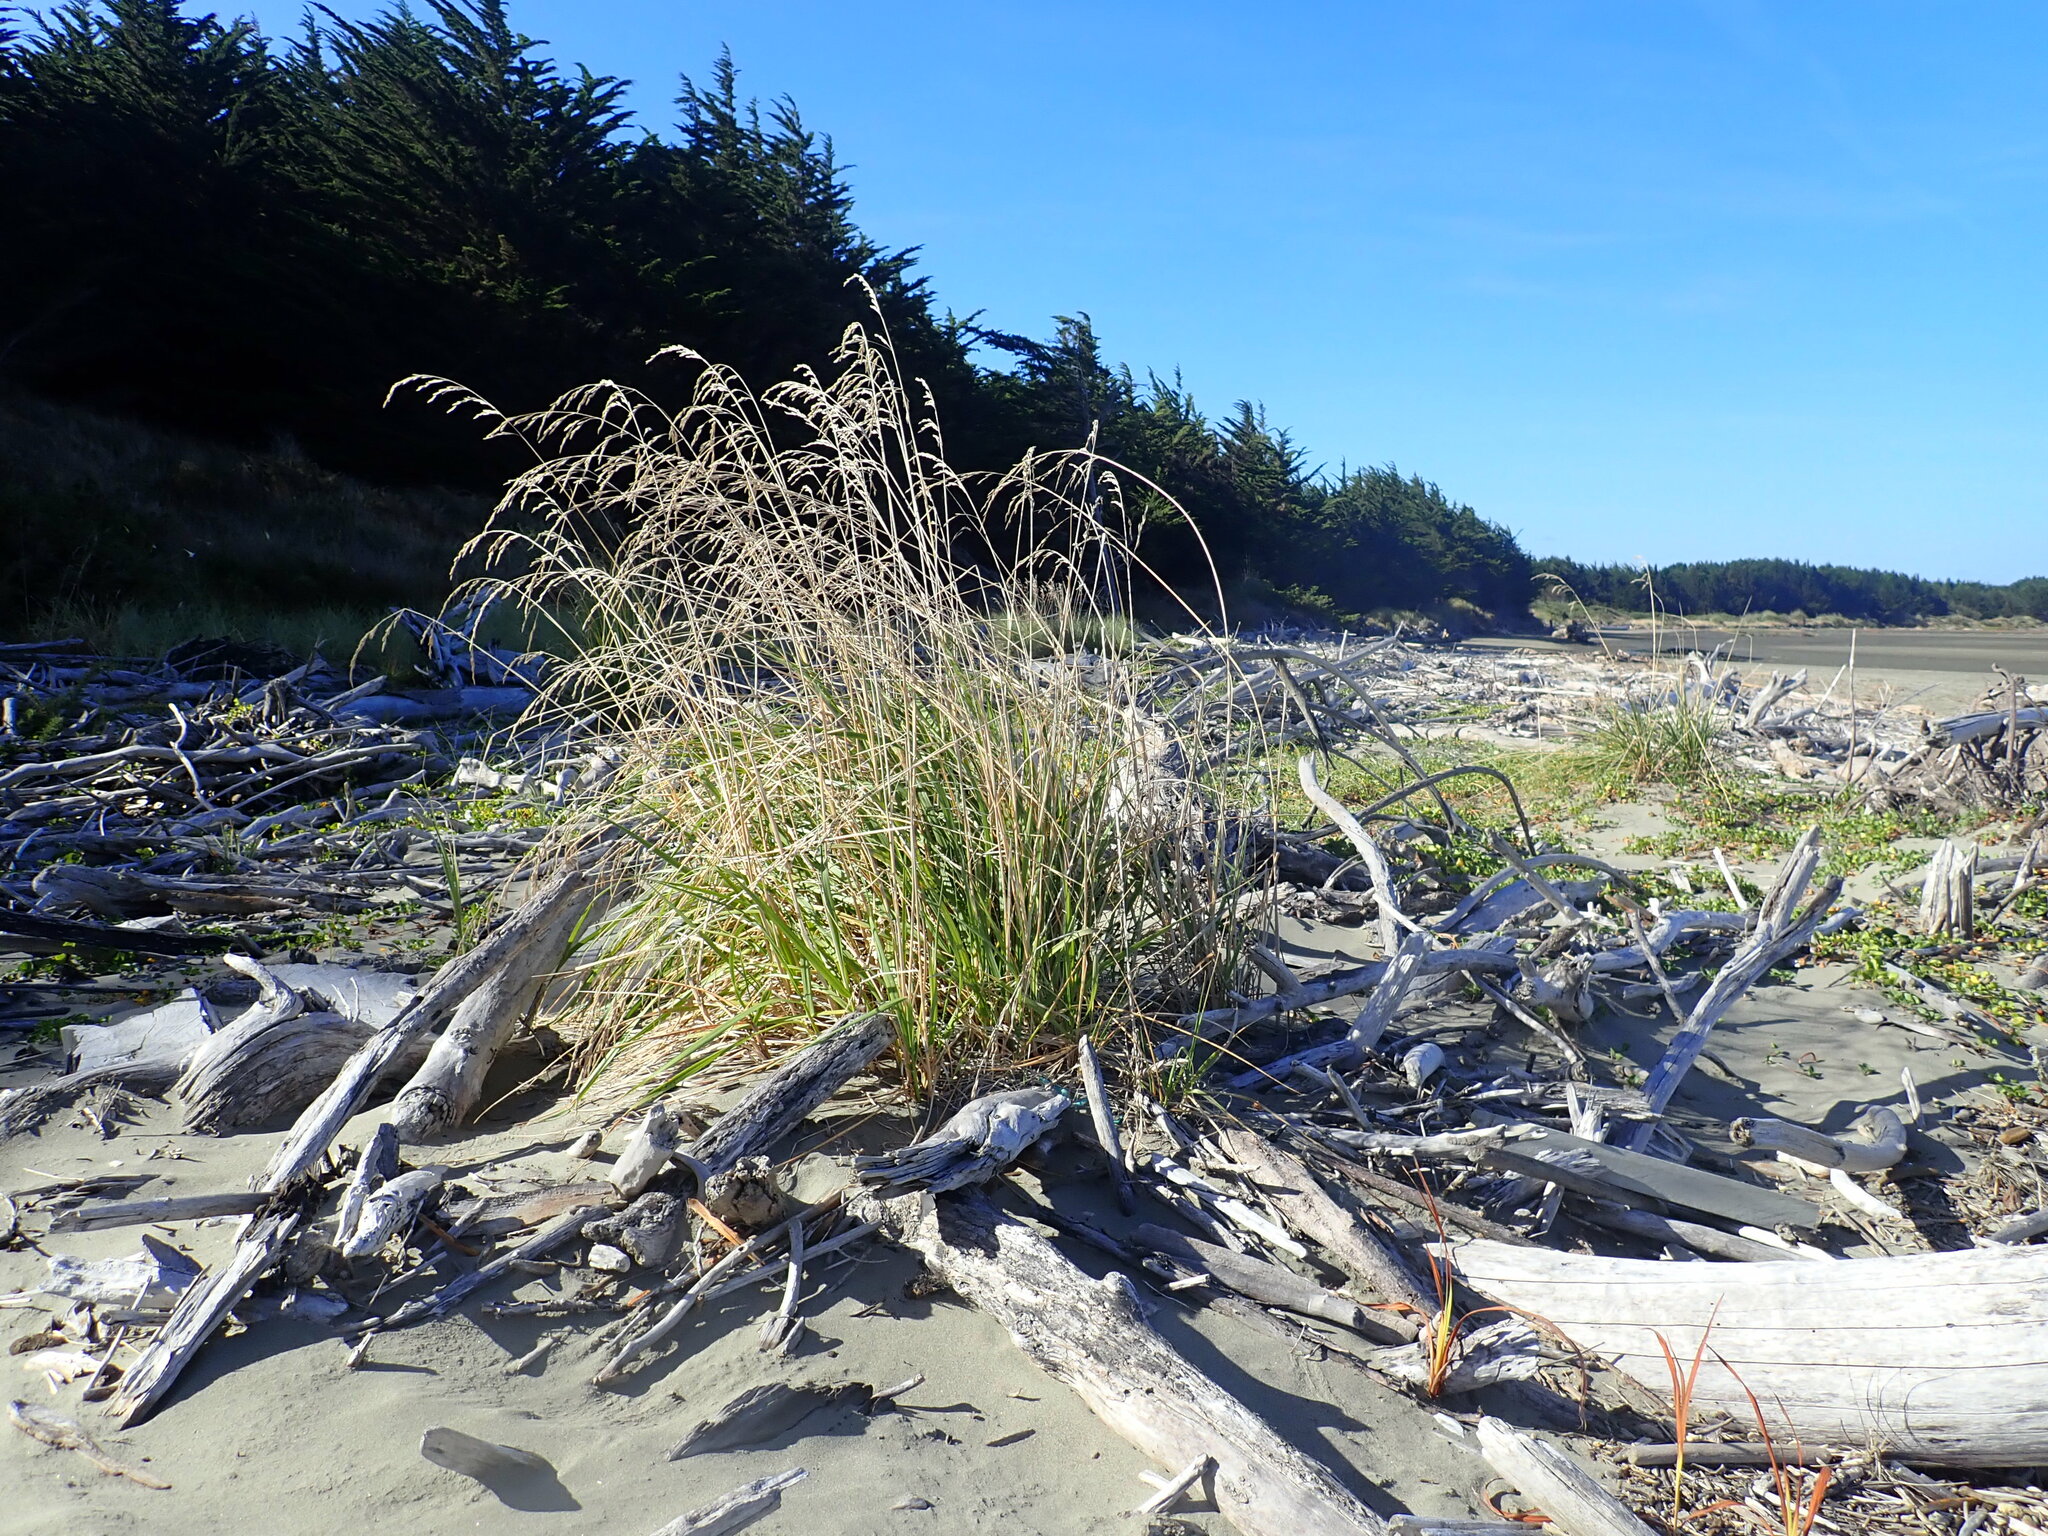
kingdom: Plantae
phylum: Tracheophyta
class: Liliopsida
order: Poales
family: Poaceae
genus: Lolium
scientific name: Lolium arundinaceum
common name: Reed fescue
